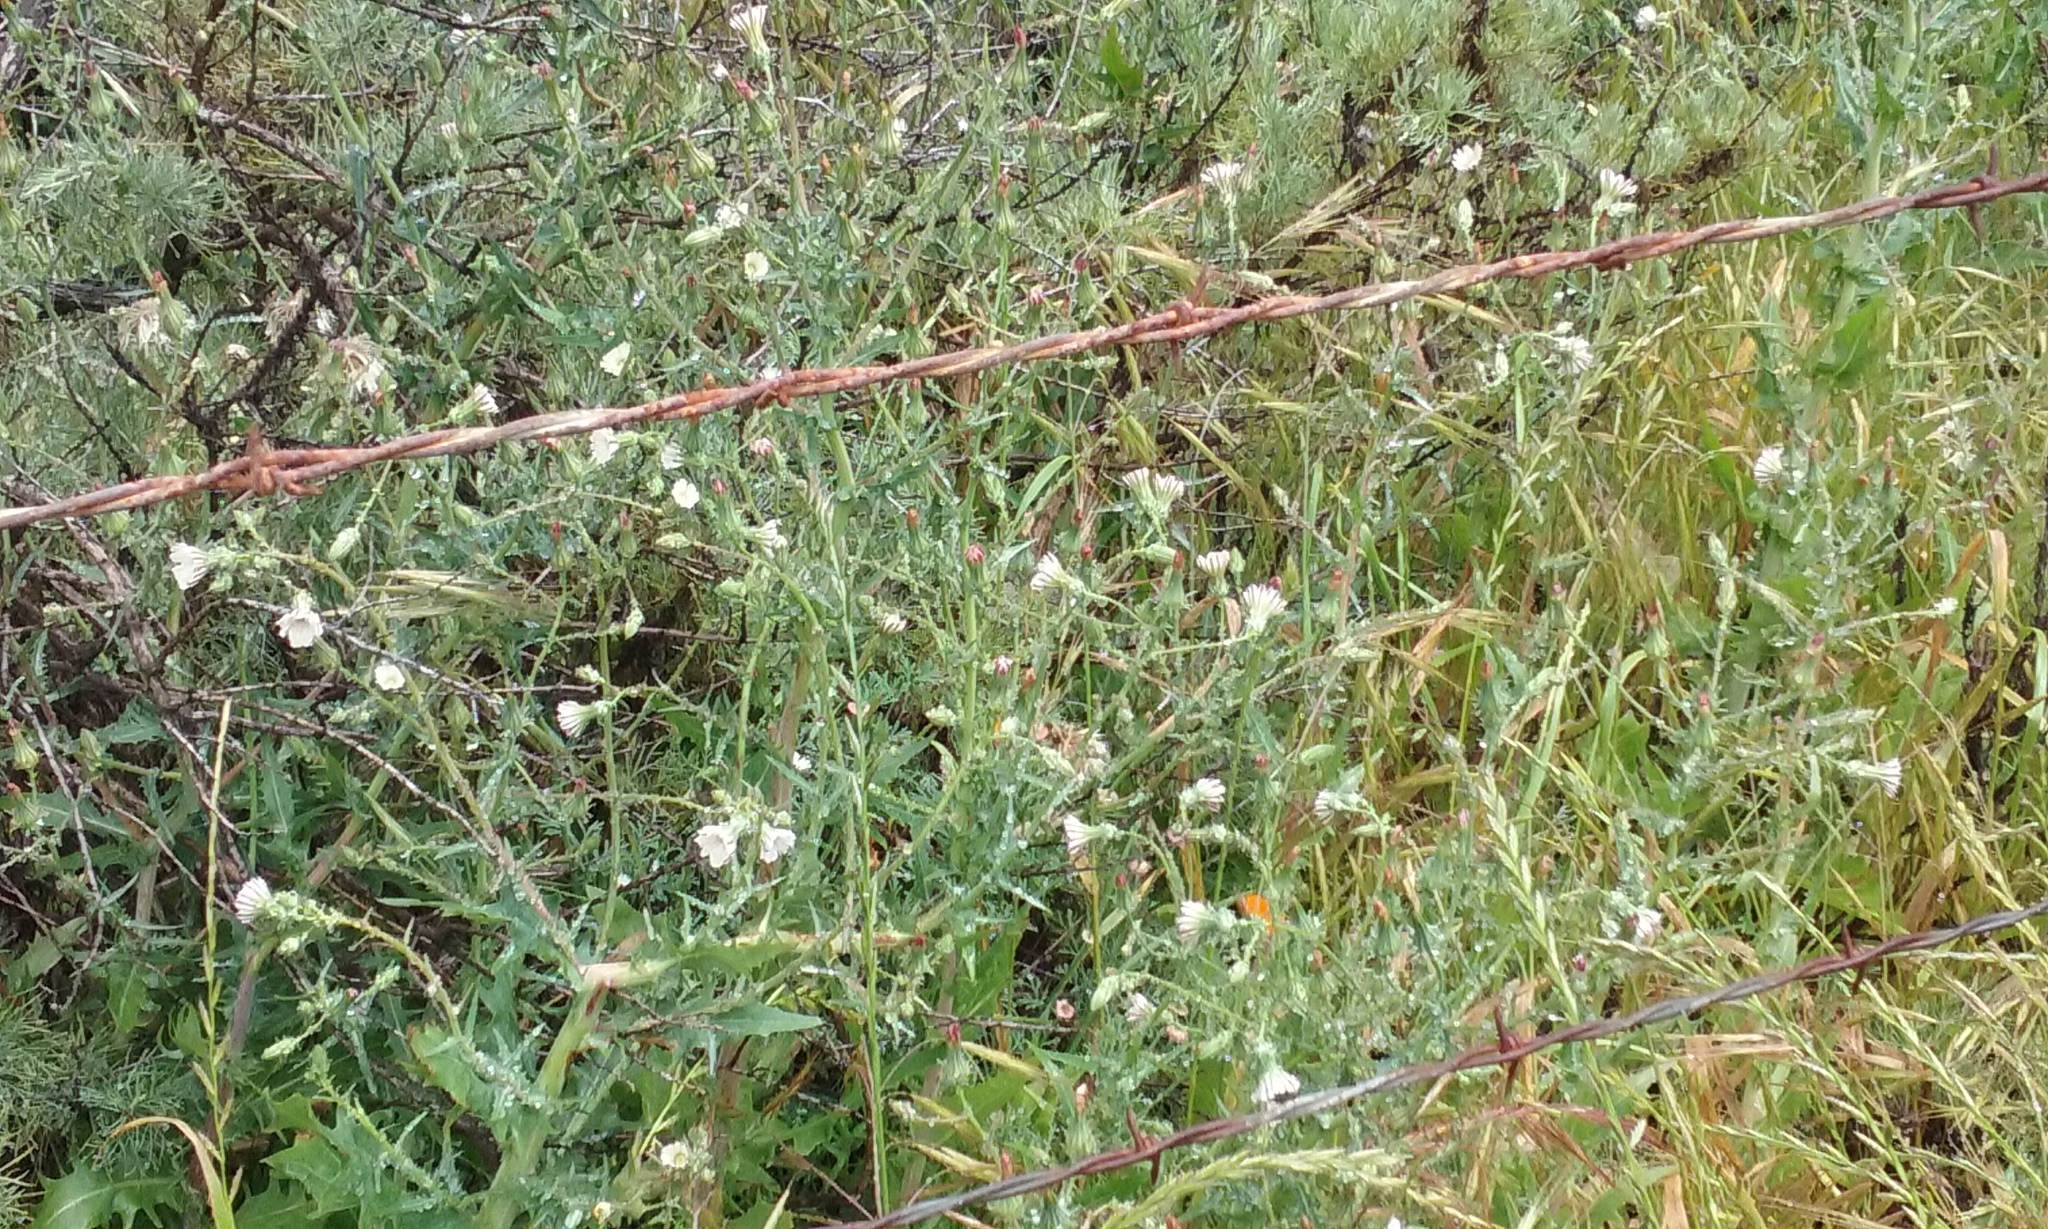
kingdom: Plantae
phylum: Tracheophyta
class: Magnoliopsida
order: Asterales
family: Asteraceae
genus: Rafinesquia
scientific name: Rafinesquia californica
